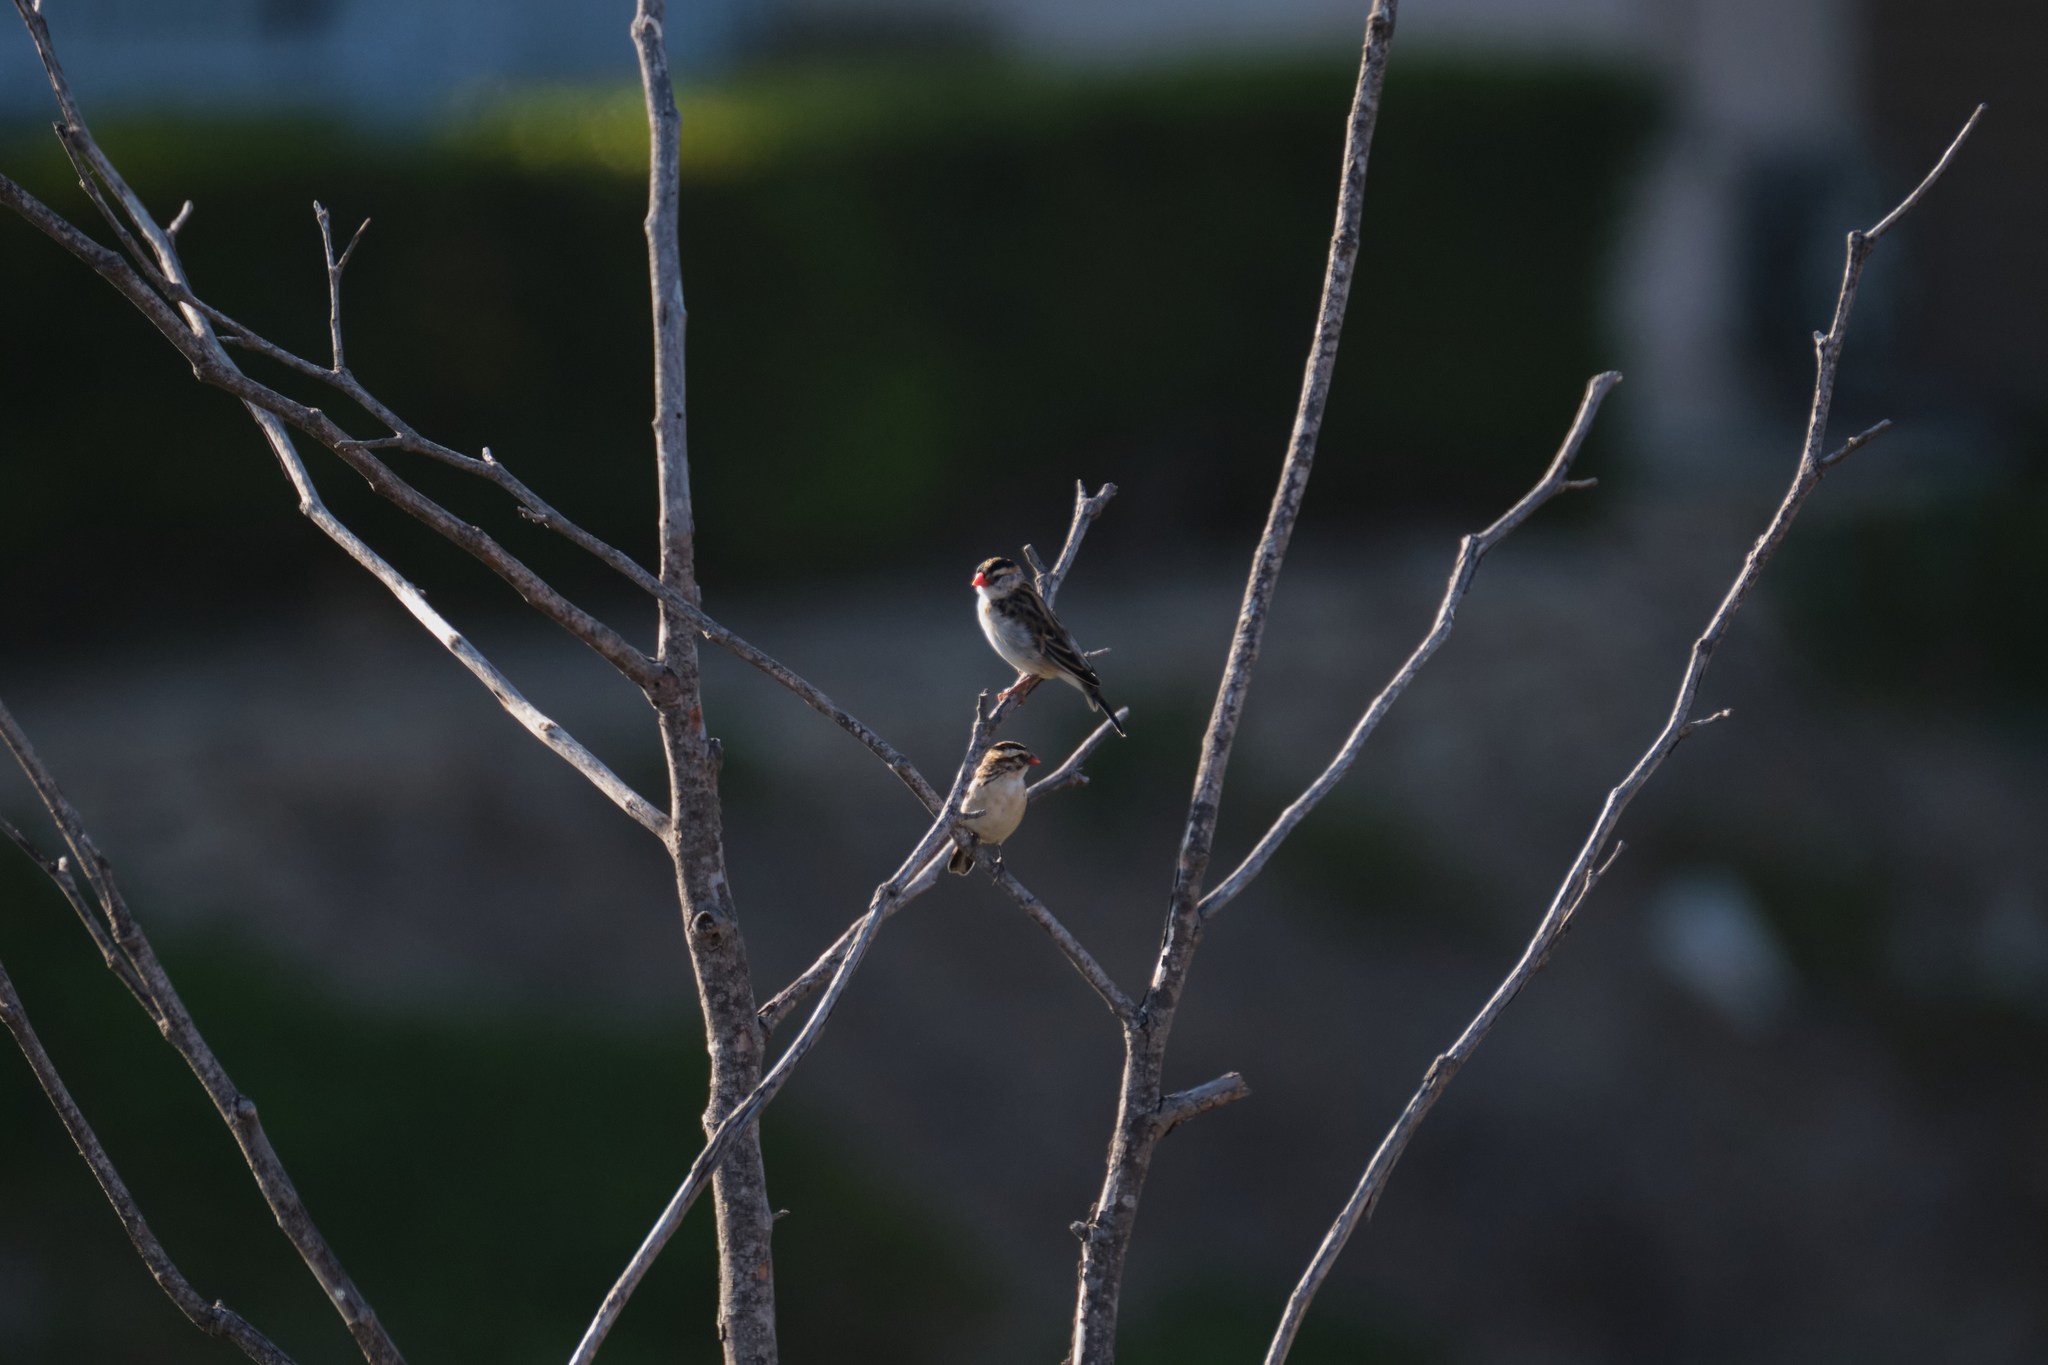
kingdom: Animalia
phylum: Chordata
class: Aves
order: Passeriformes
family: Viduidae
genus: Vidua
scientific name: Vidua macroura
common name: Pin-tailed whydah
